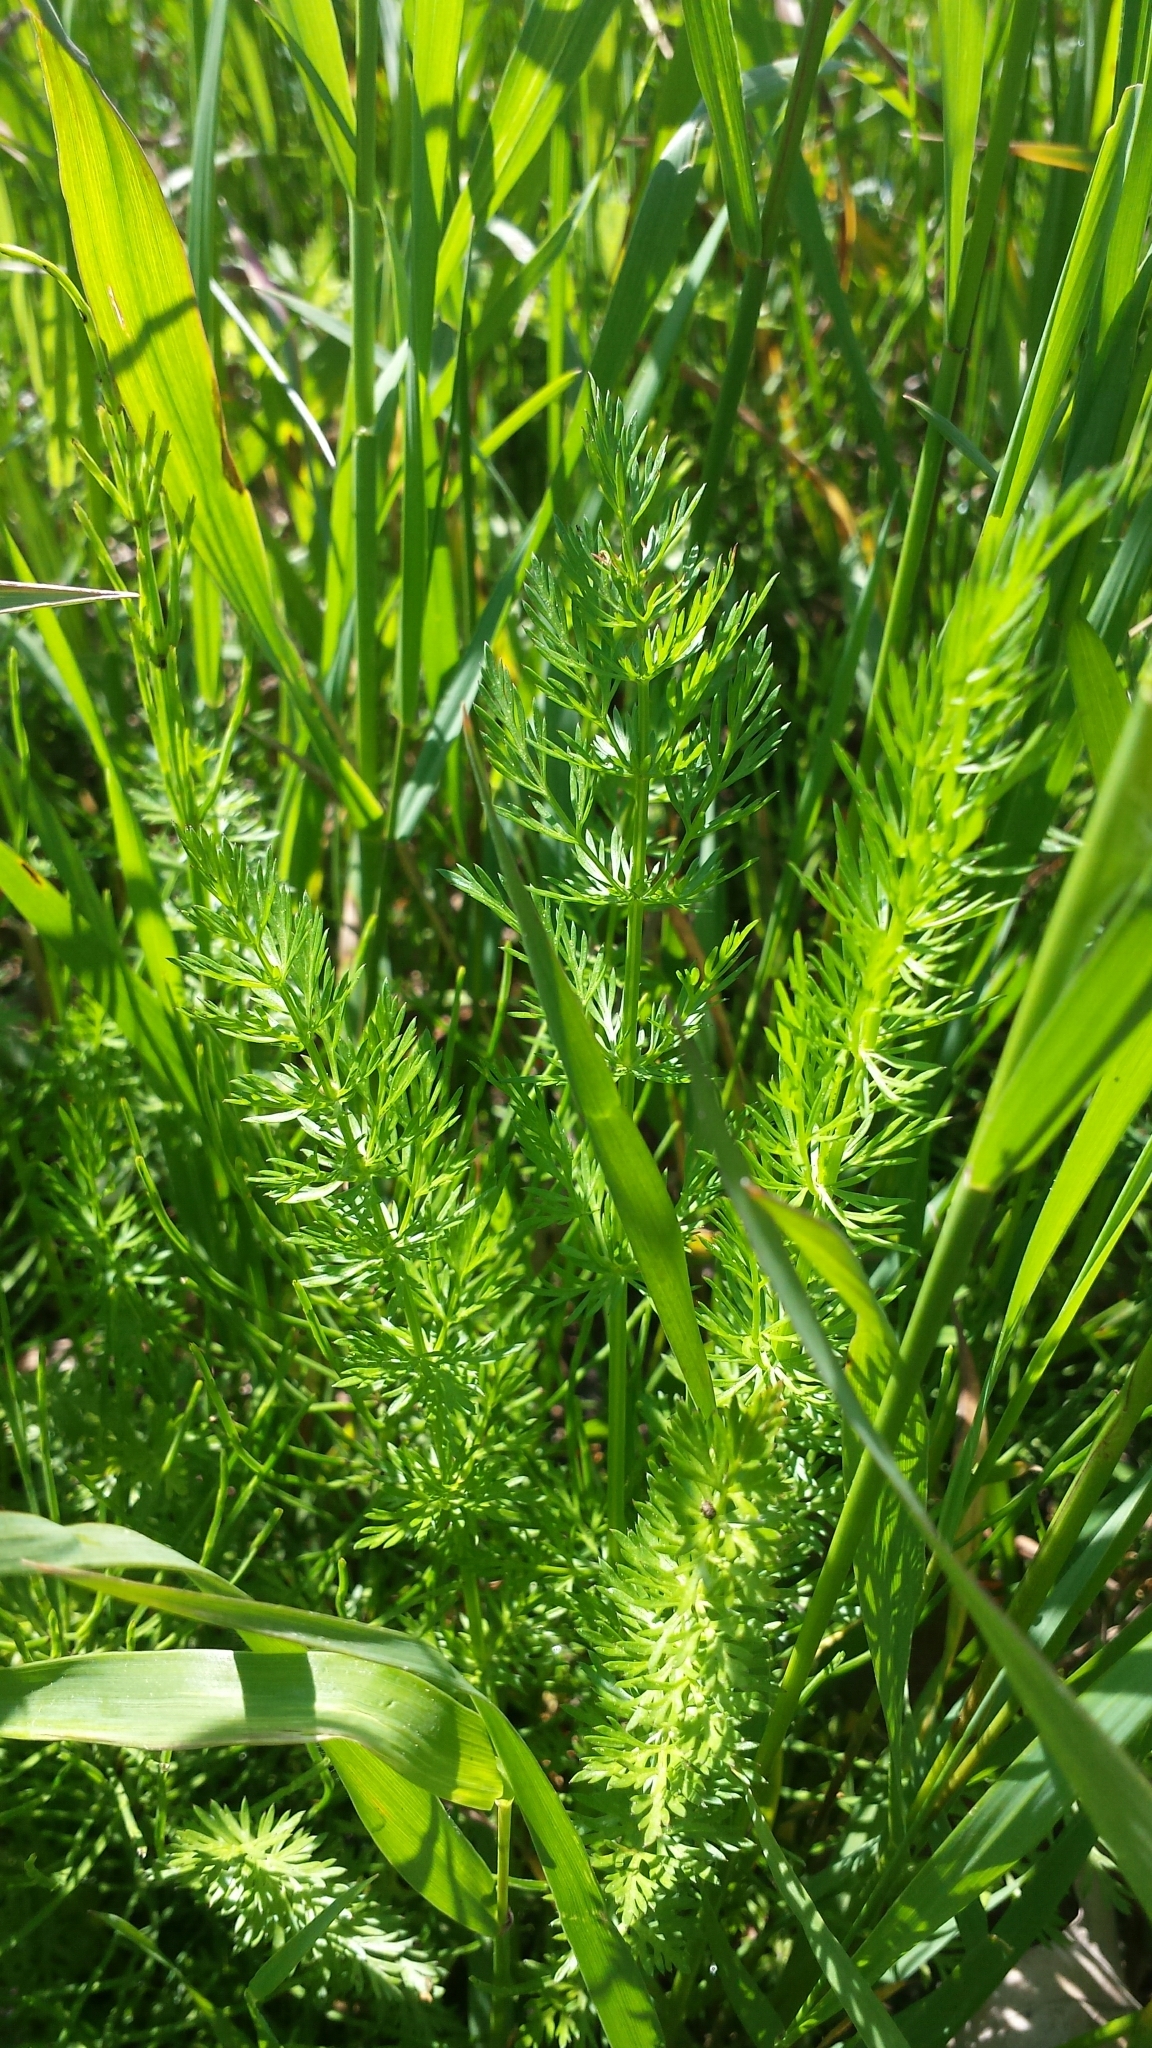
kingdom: Plantae
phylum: Tracheophyta
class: Magnoliopsida
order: Apiales
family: Apiaceae
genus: Carum
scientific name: Carum carvi
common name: Caraway
